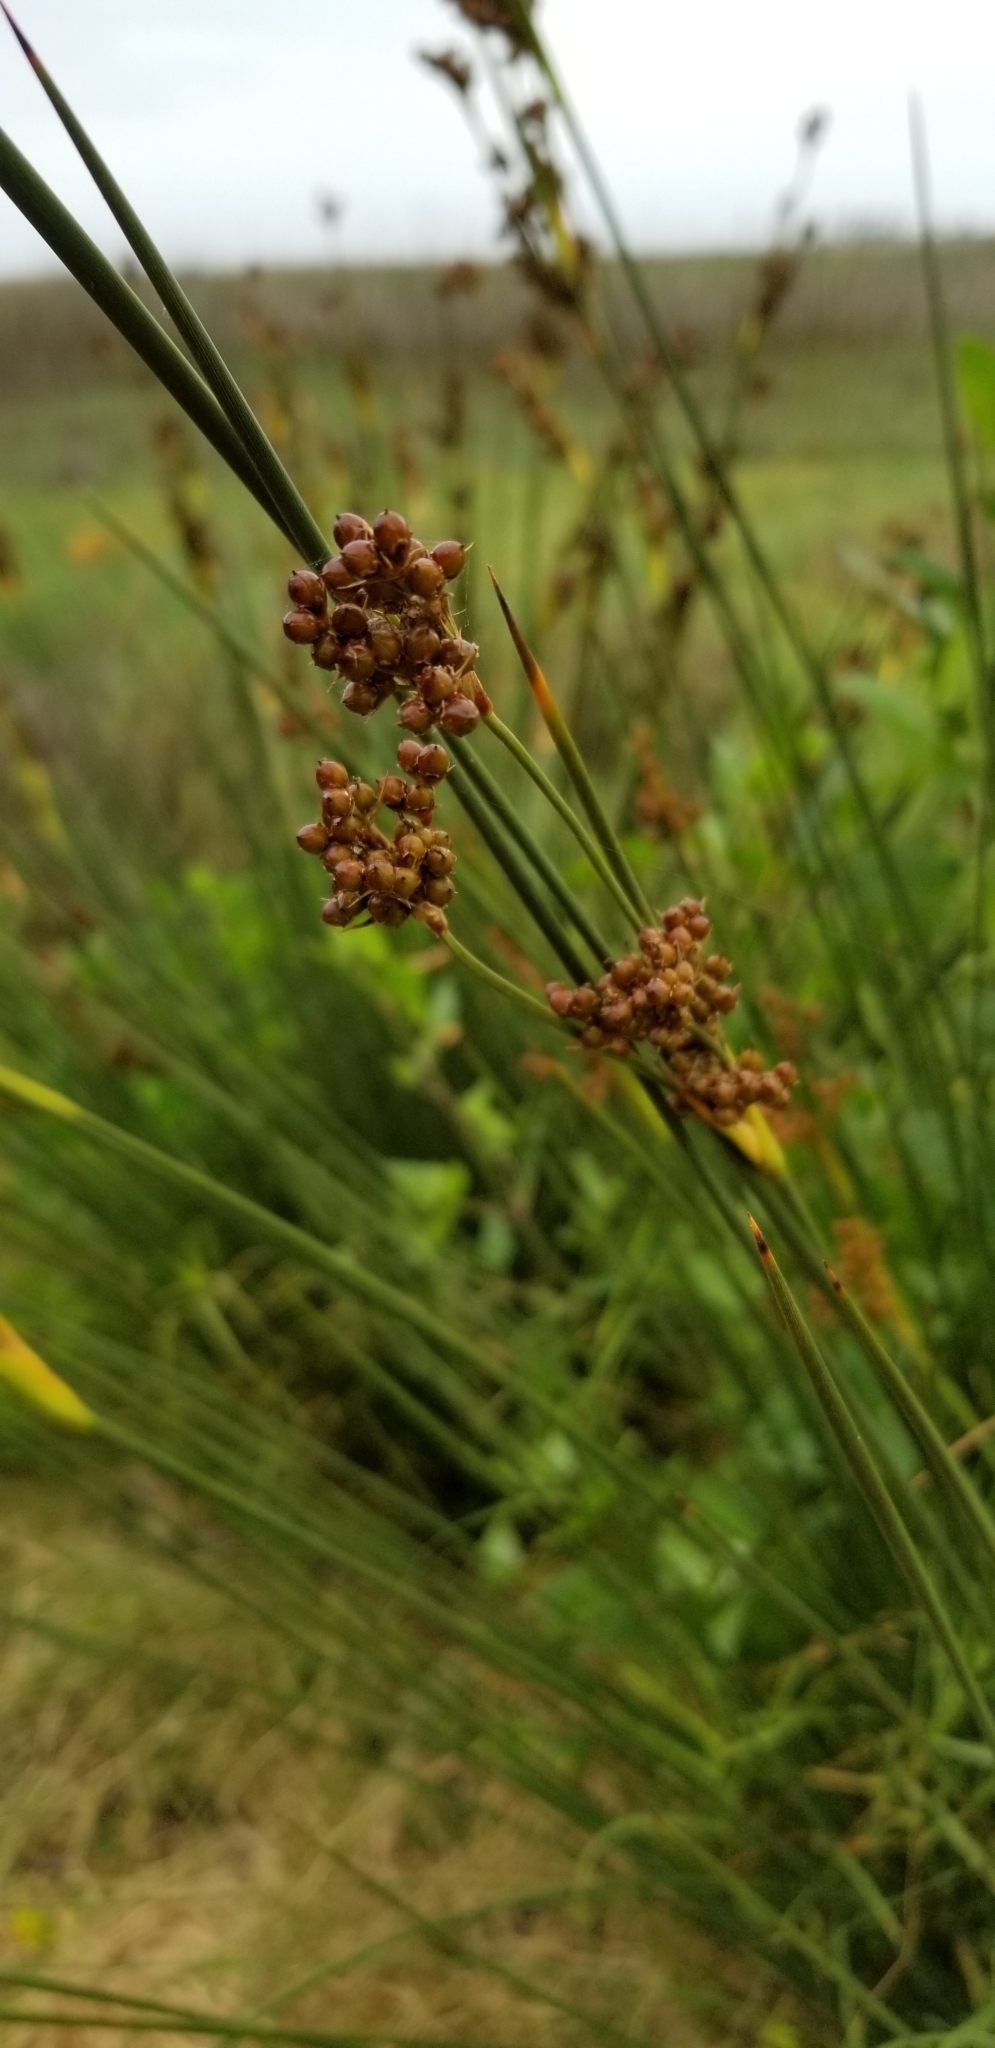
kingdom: Plantae
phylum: Tracheophyta
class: Liliopsida
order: Poales
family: Juncaceae
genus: Juncus
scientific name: Juncus acutus
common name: Sharp rush
